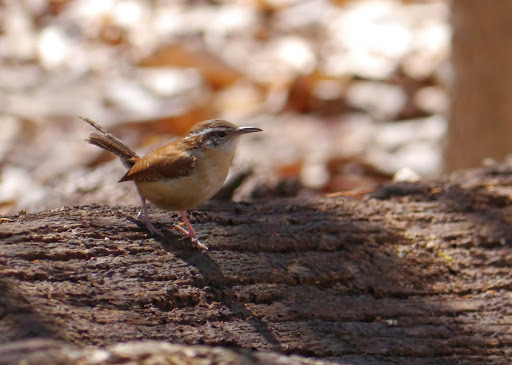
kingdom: Animalia
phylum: Chordata
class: Aves
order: Passeriformes
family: Troglodytidae
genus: Thryothorus
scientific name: Thryothorus ludovicianus
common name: Carolina wren
